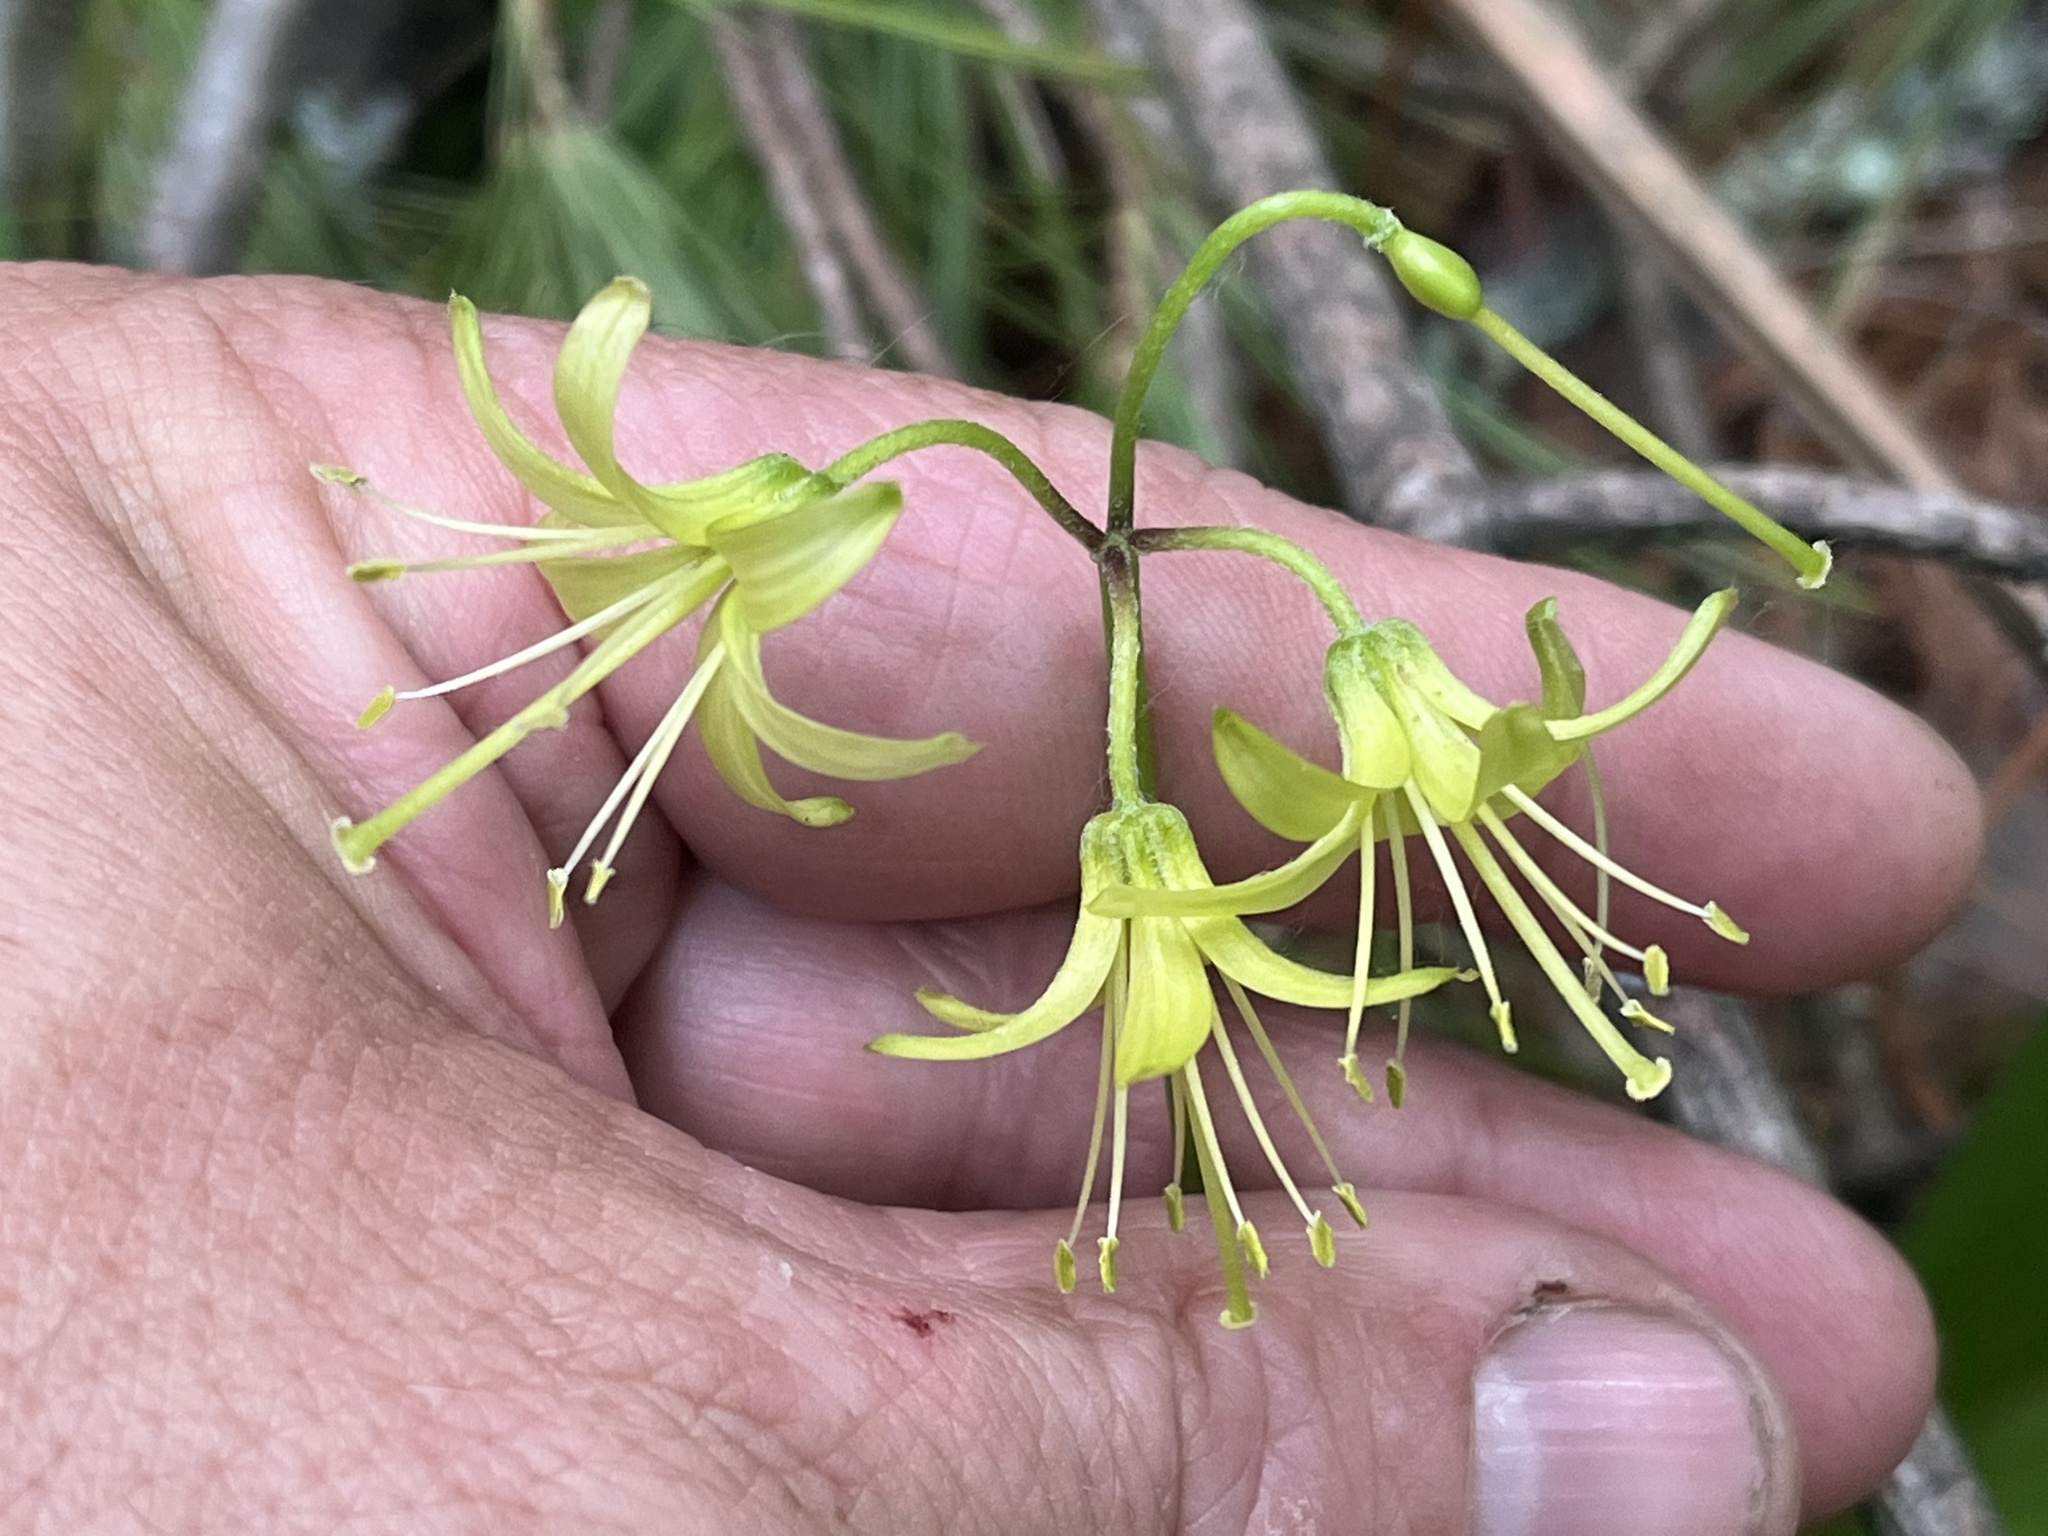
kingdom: Plantae
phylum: Tracheophyta
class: Liliopsida
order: Liliales
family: Liliaceae
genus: Clintonia
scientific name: Clintonia borealis
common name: Yellow clintonia
